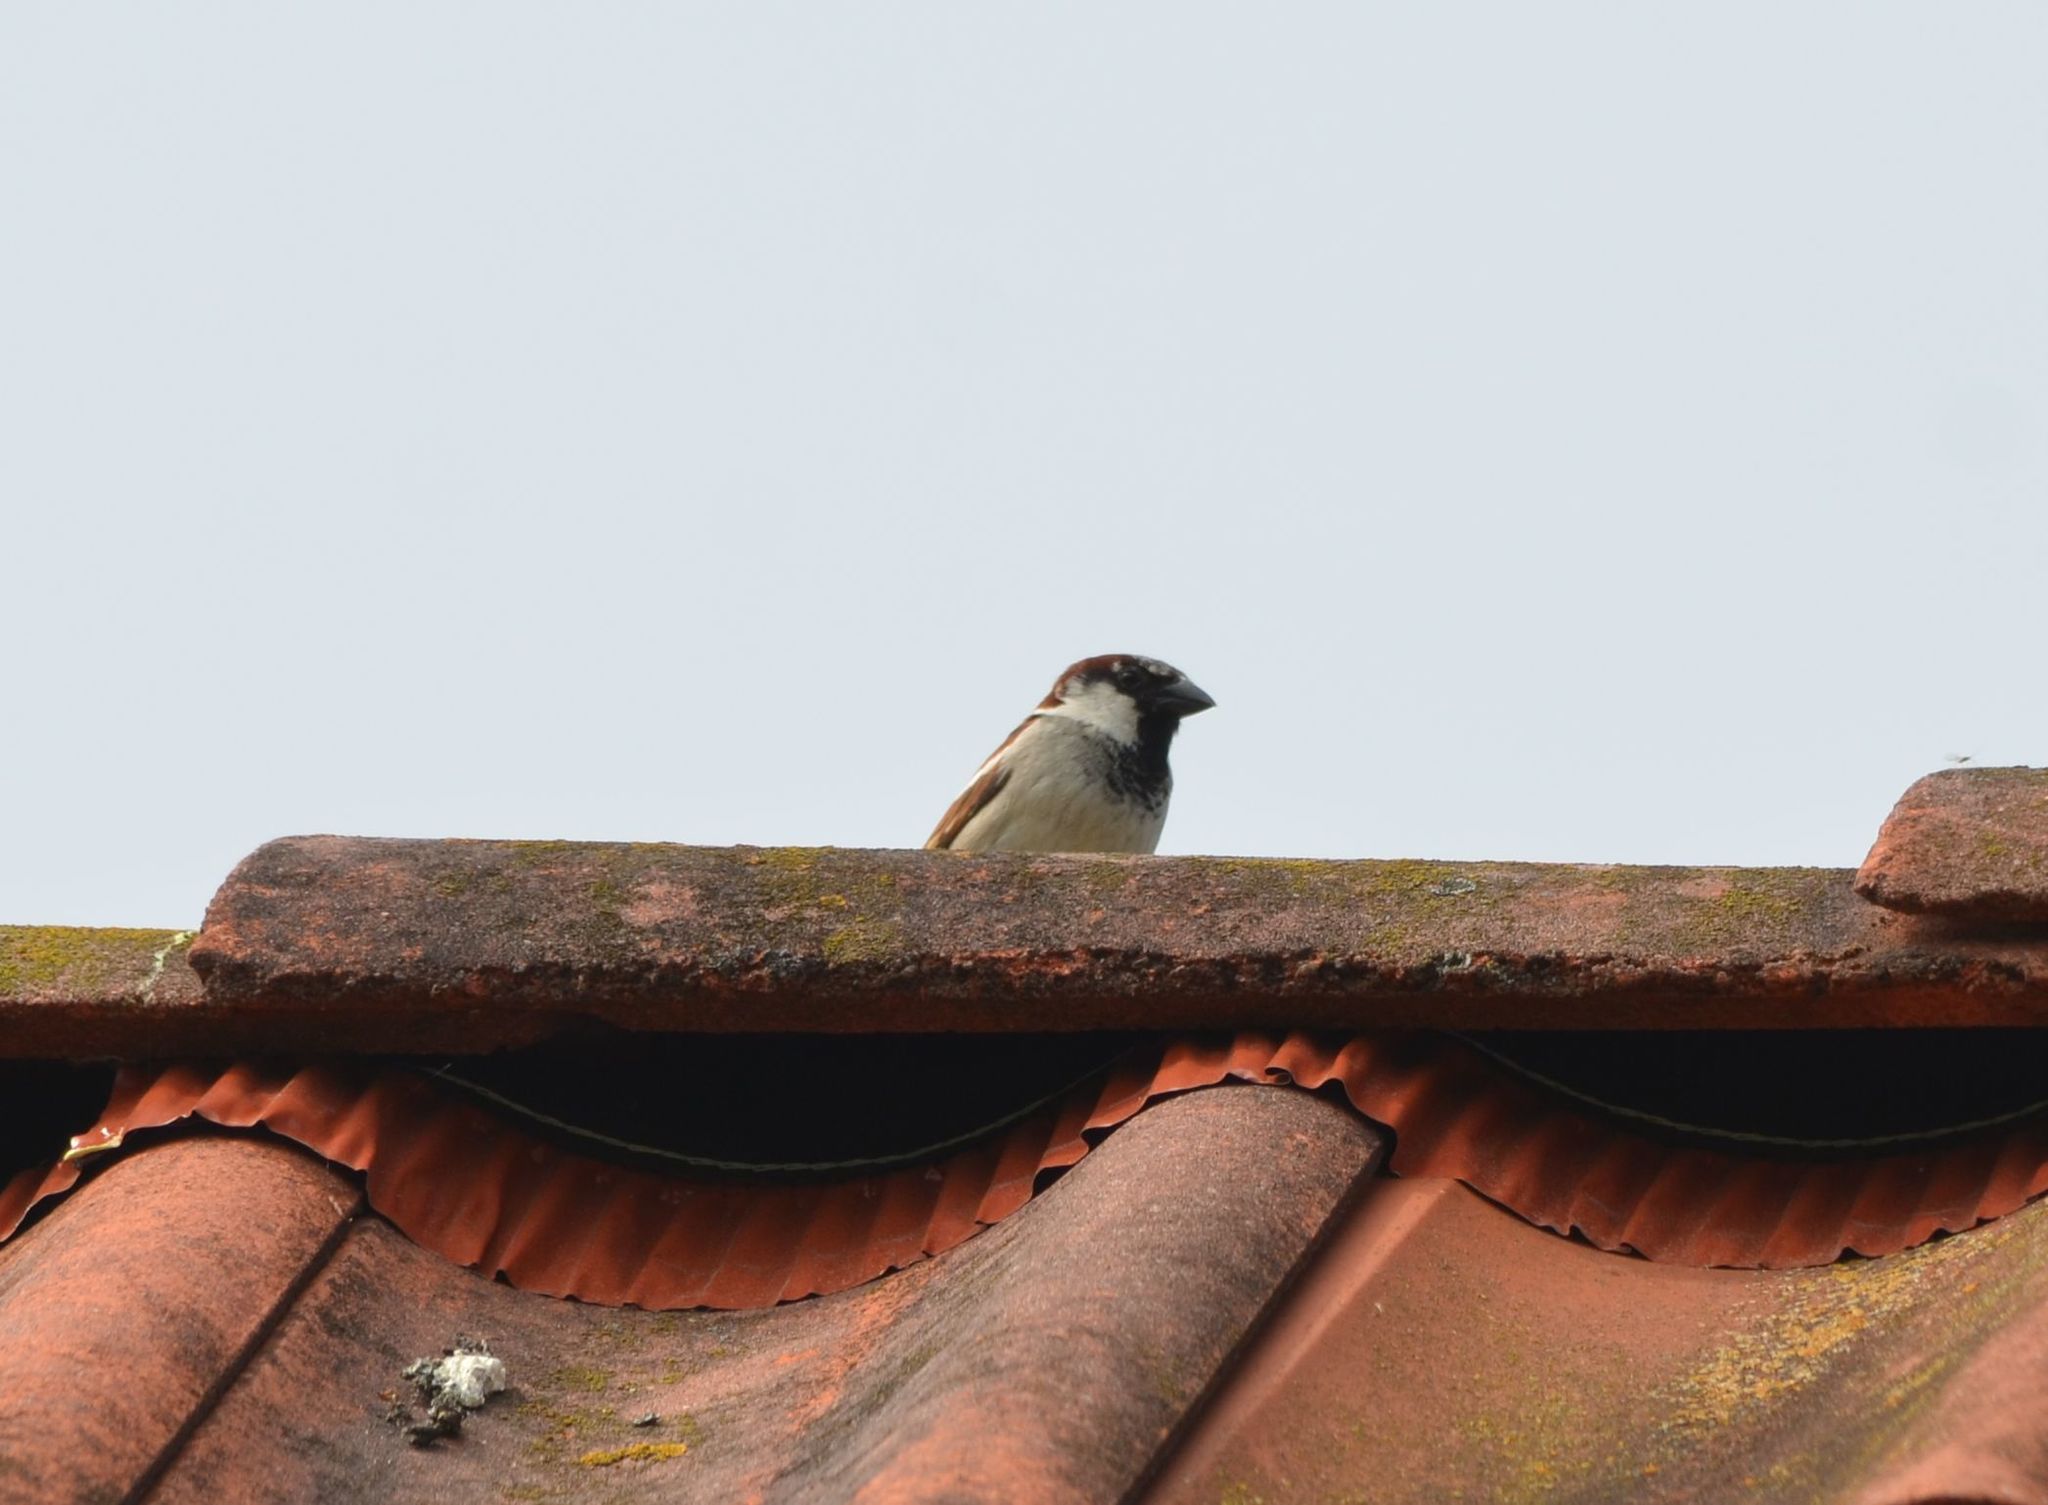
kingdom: Animalia
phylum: Chordata
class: Aves
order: Passeriformes
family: Passeridae
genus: Passer
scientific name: Passer domesticus
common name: House sparrow
